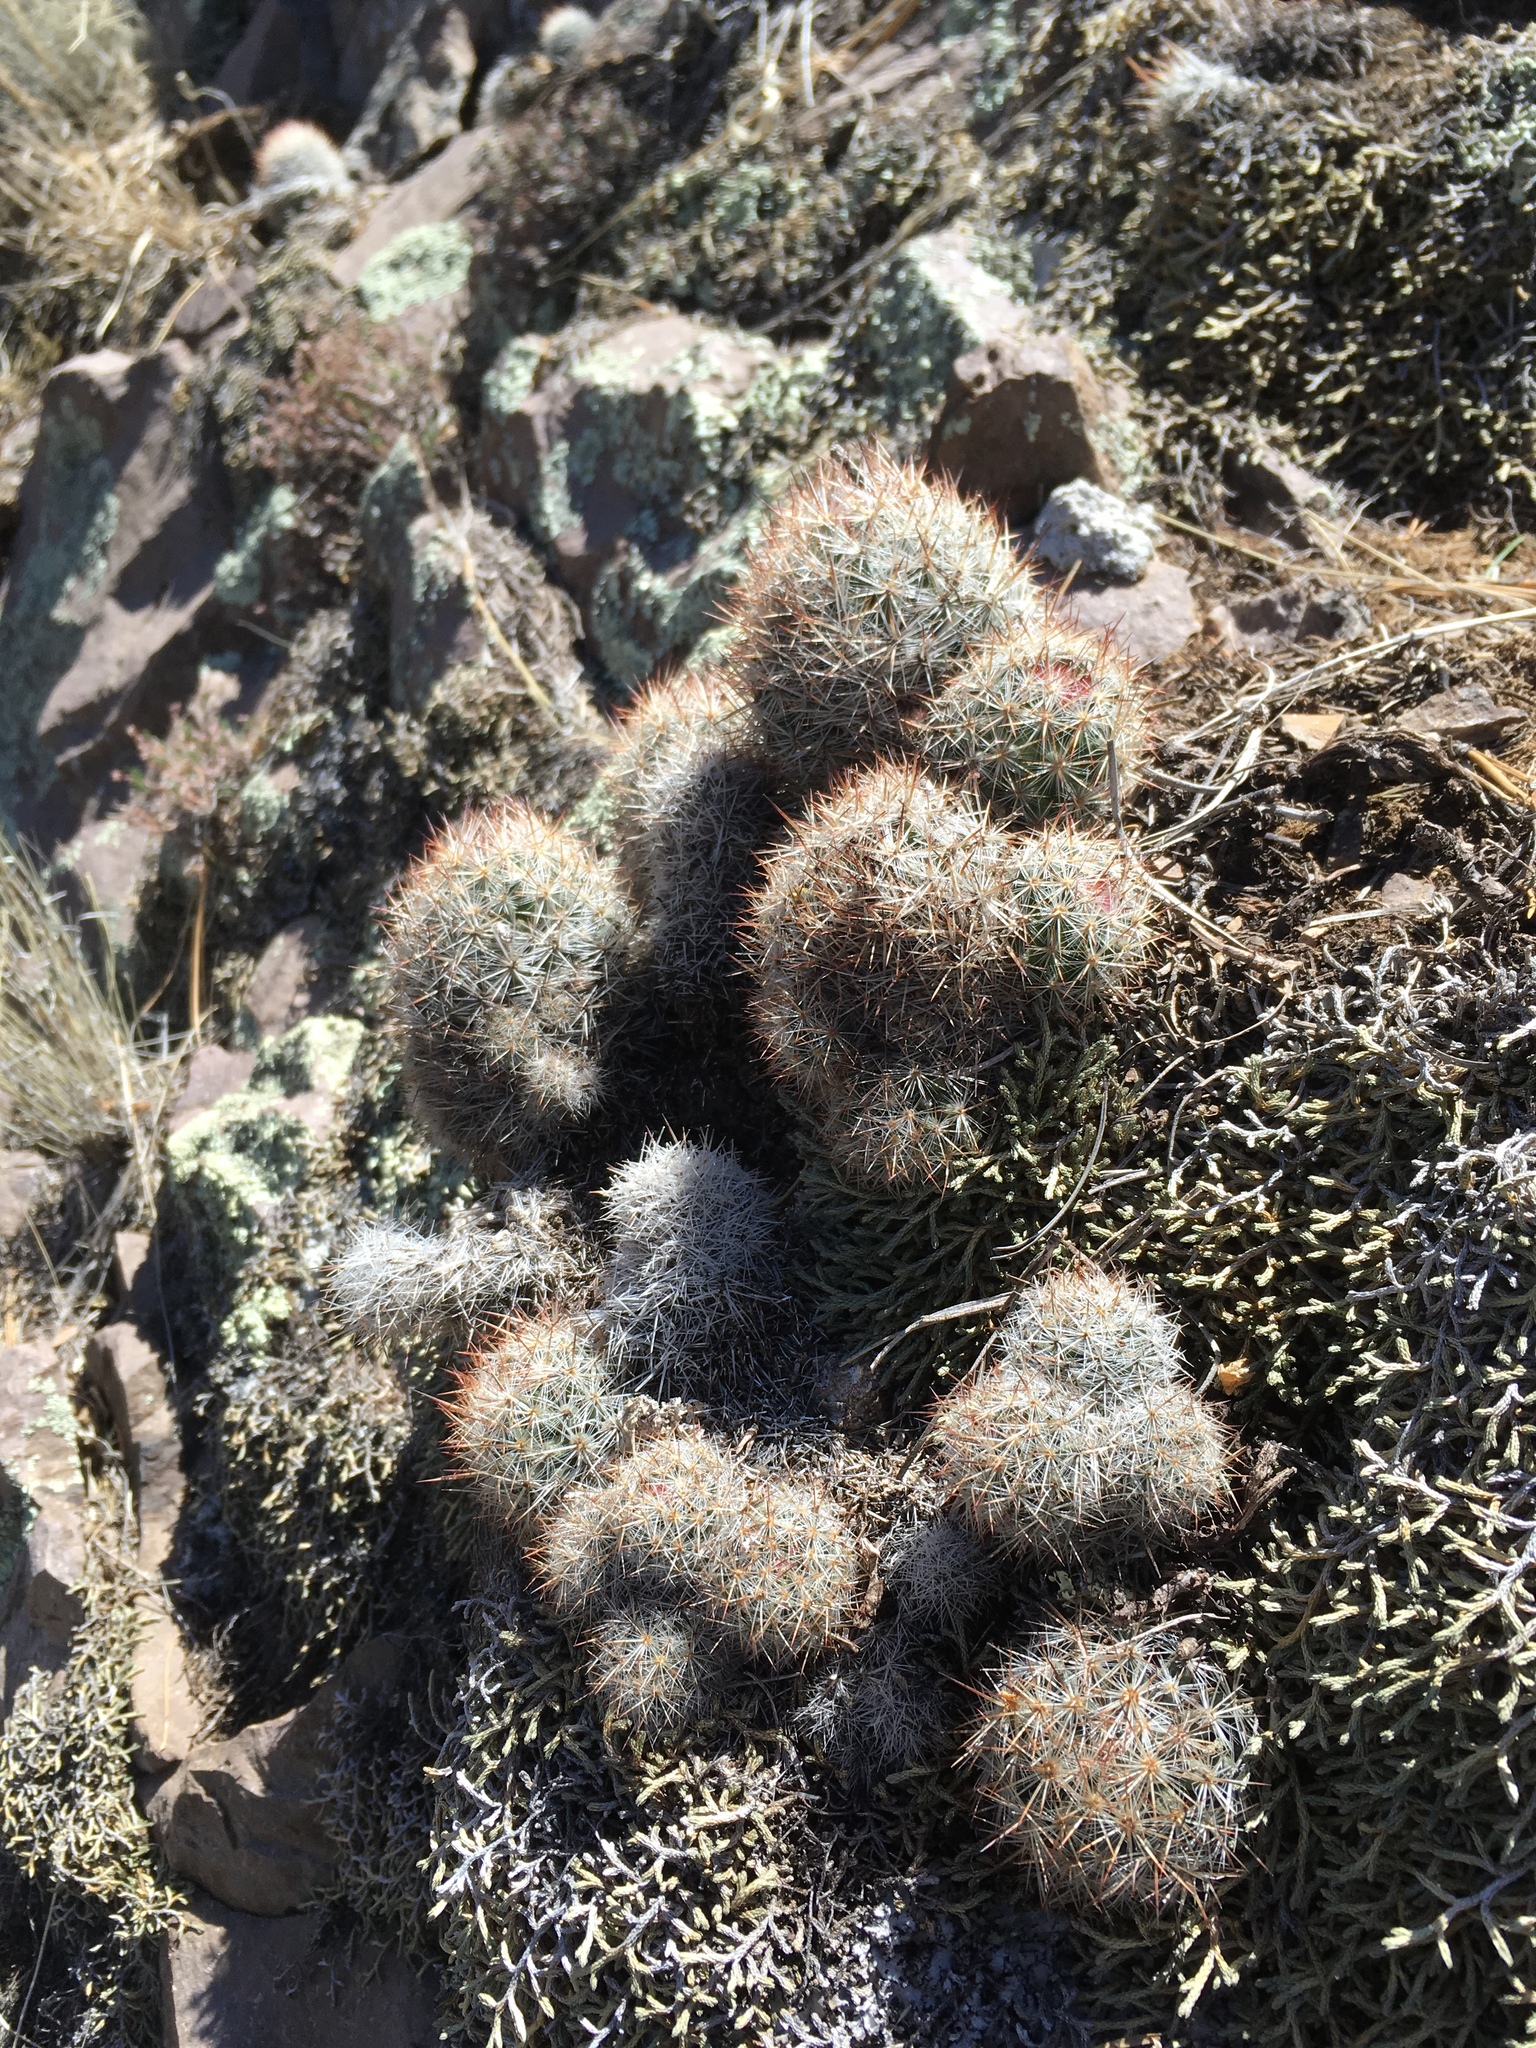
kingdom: Plantae
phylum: Tracheophyta
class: Magnoliopsida
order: Caryophyllales
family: Cactaceae
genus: Pelecyphora
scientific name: Pelecyphora sneedii
